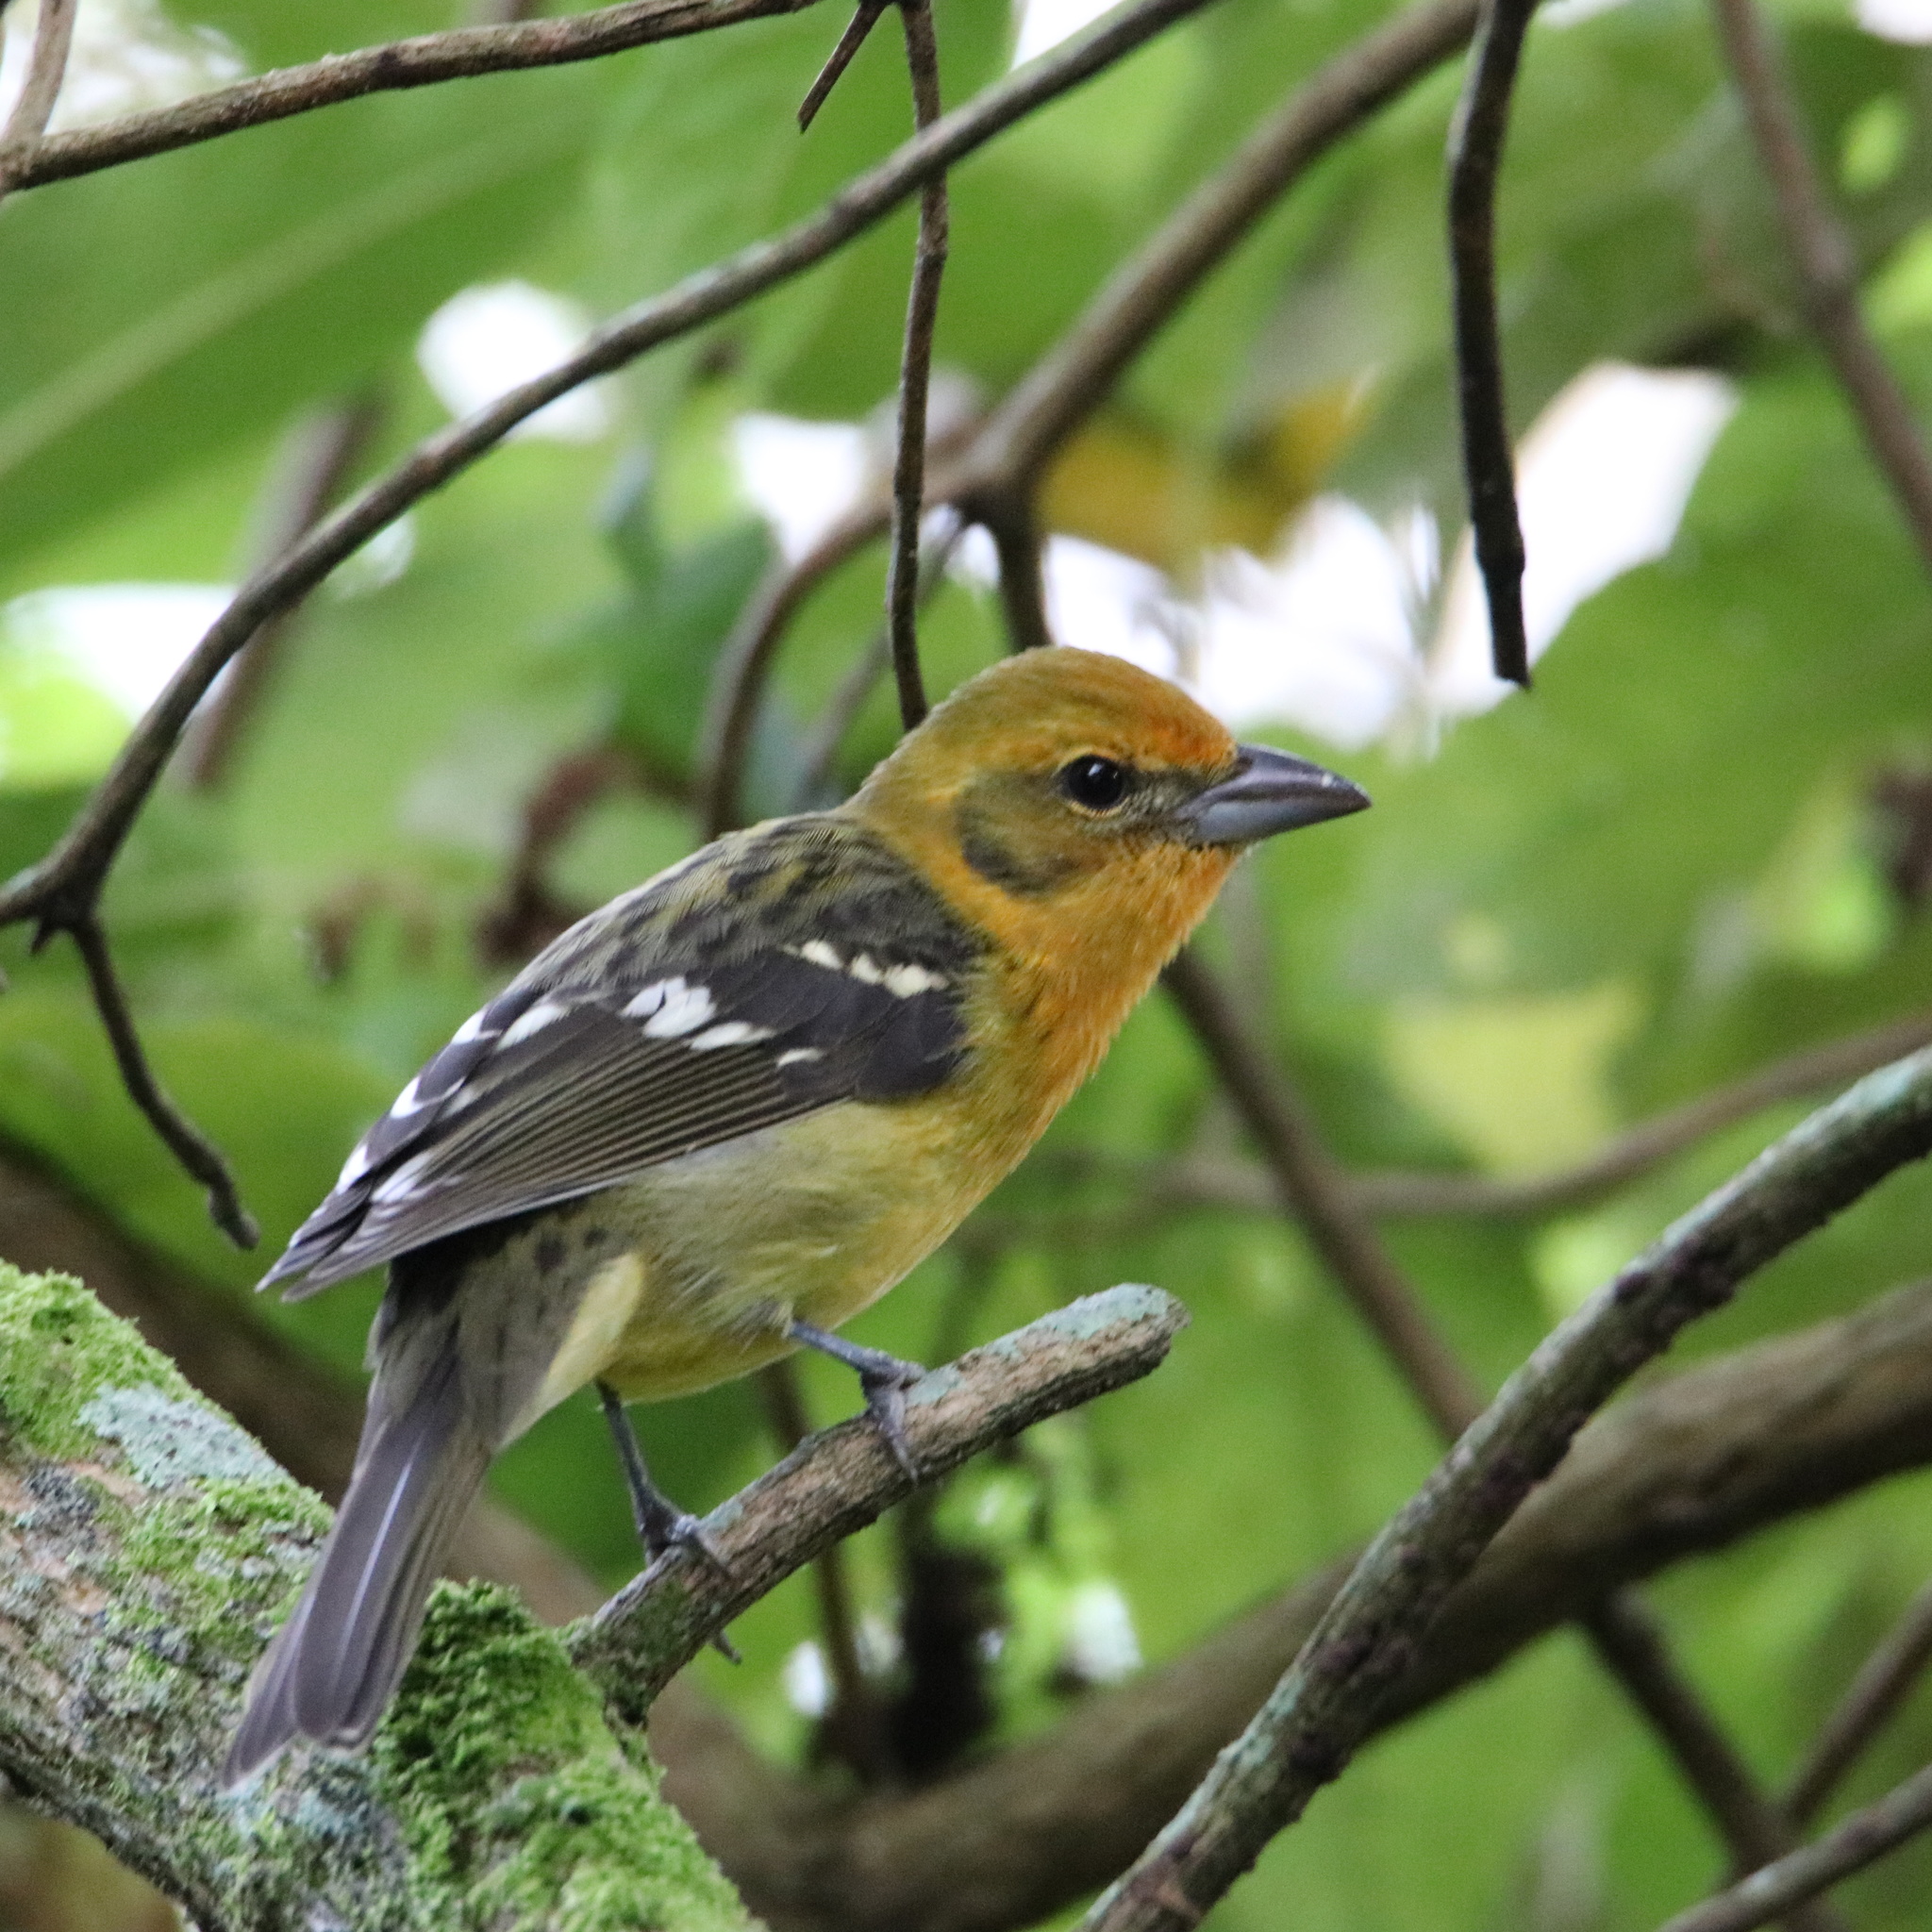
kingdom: Animalia
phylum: Chordata
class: Aves
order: Passeriformes
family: Cardinalidae
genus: Piranga
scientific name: Piranga bidentata
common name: Flame-colored tanager
